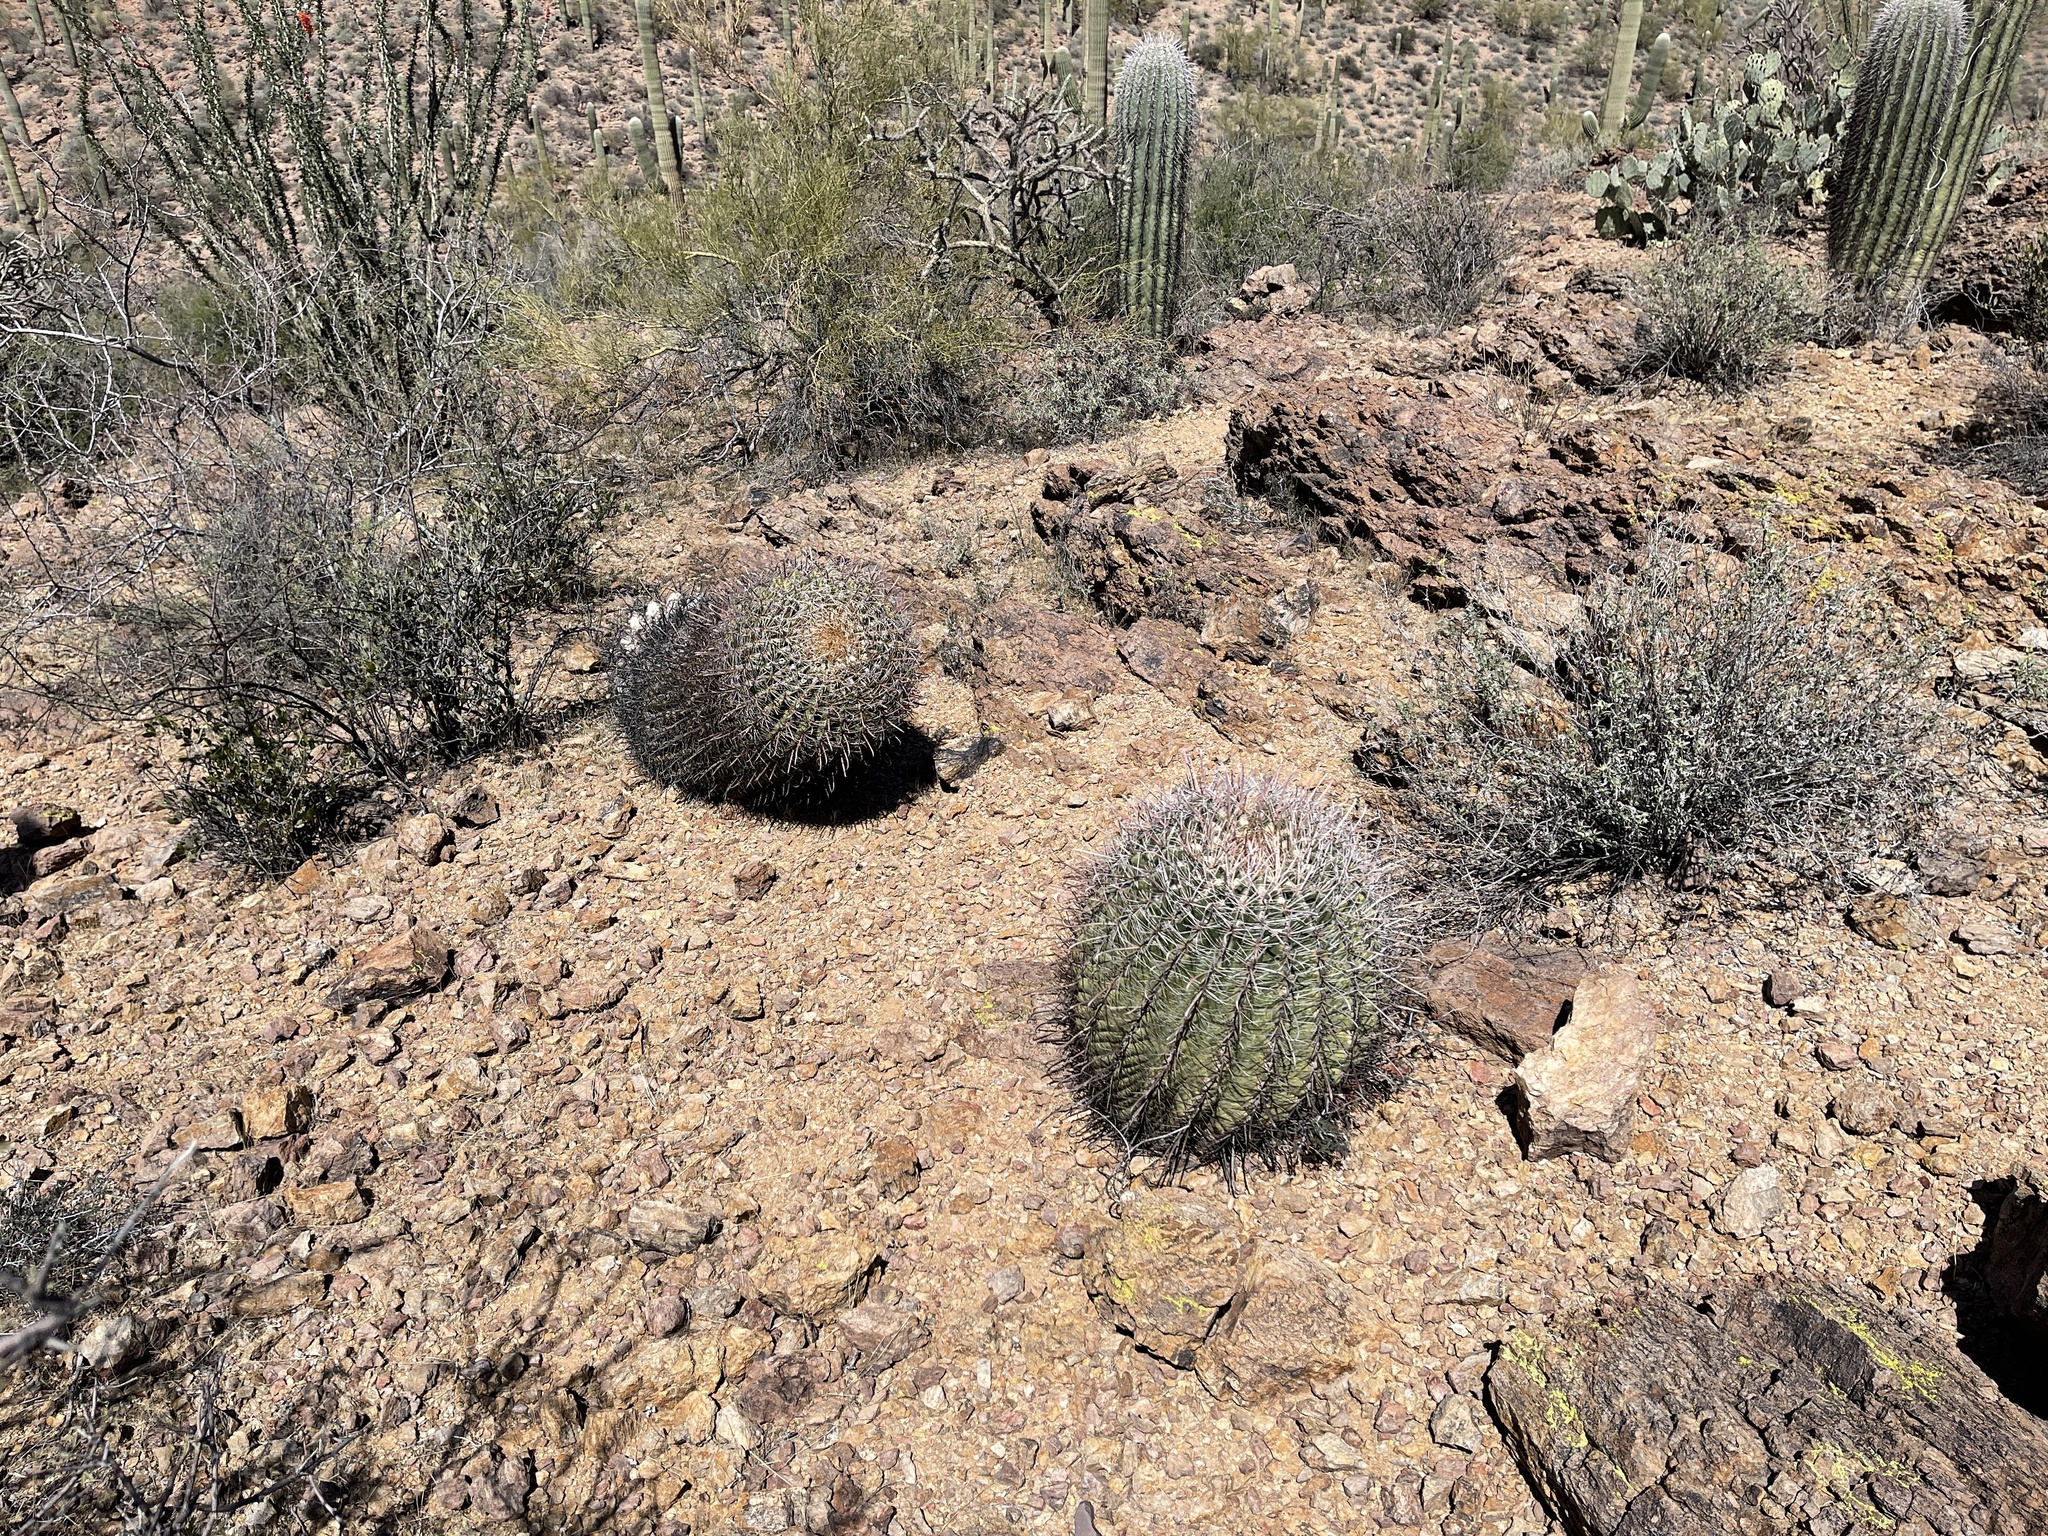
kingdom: Plantae
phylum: Tracheophyta
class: Magnoliopsida
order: Caryophyllales
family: Cactaceae
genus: Ferocactus
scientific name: Ferocactus wislizeni
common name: Candy barrel cactus
